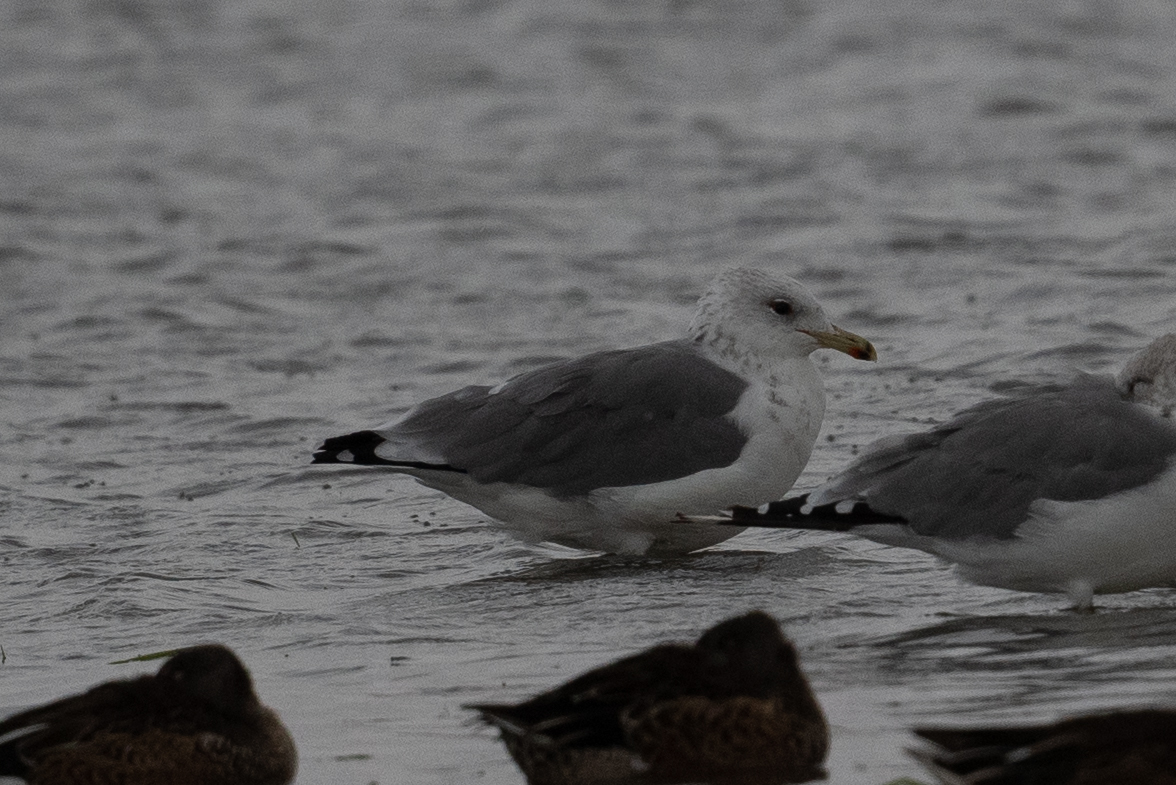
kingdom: Animalia
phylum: Chordata
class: Aves
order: Charadriiformes
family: Laridae
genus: Larus
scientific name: Larus californicus
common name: California gull
